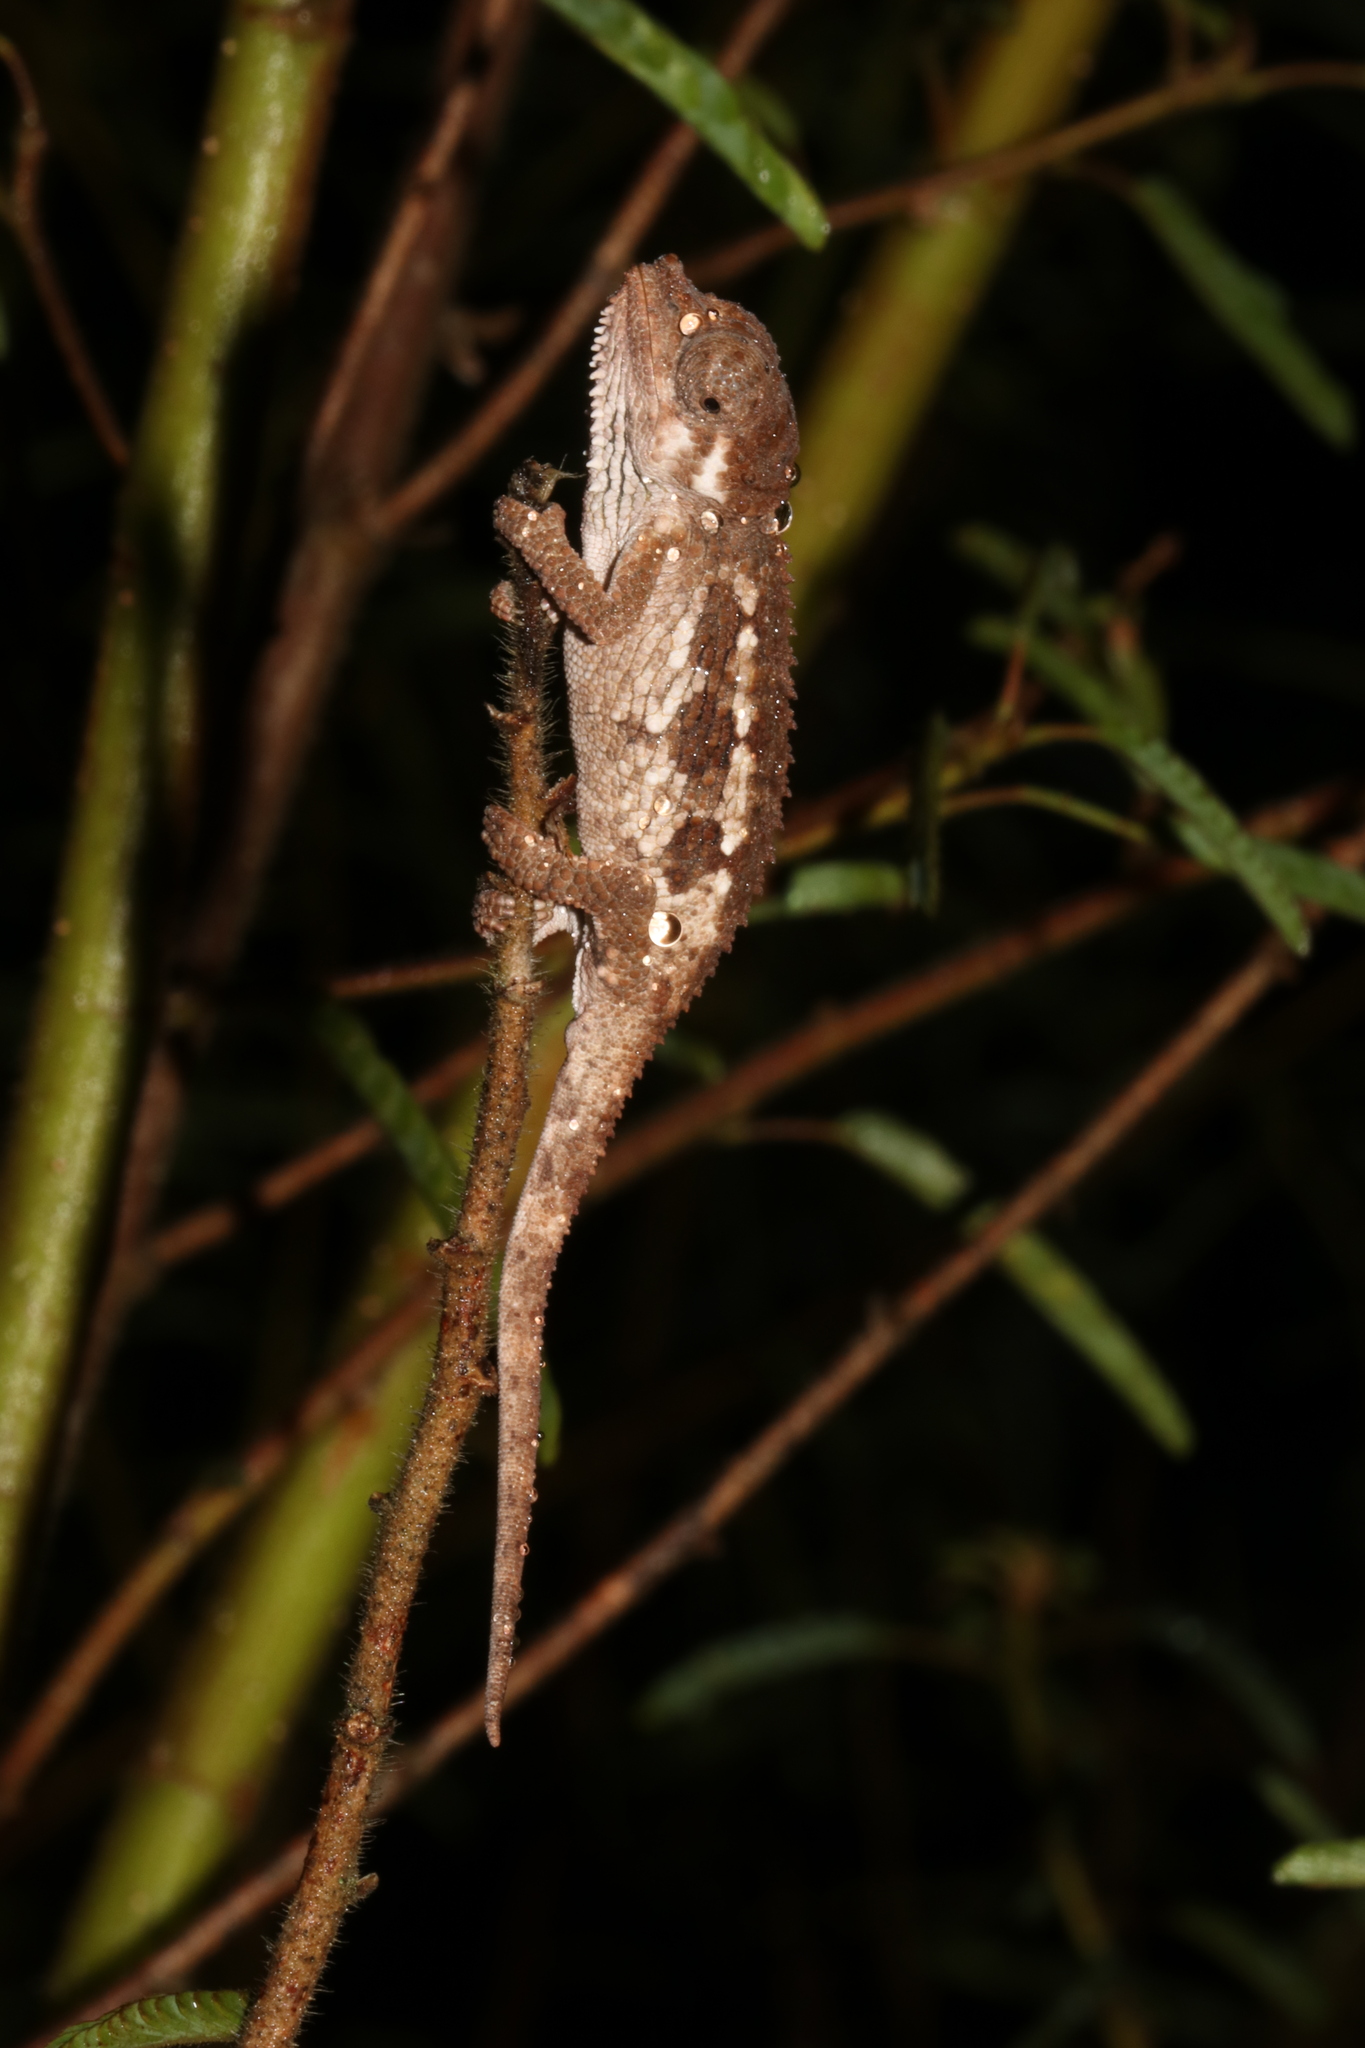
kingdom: Animalia
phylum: Chordata
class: Squamata
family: Chamaeleonidae
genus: Trioceros
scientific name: Trioceros tempeli
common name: Tanzania mountain chameleon
